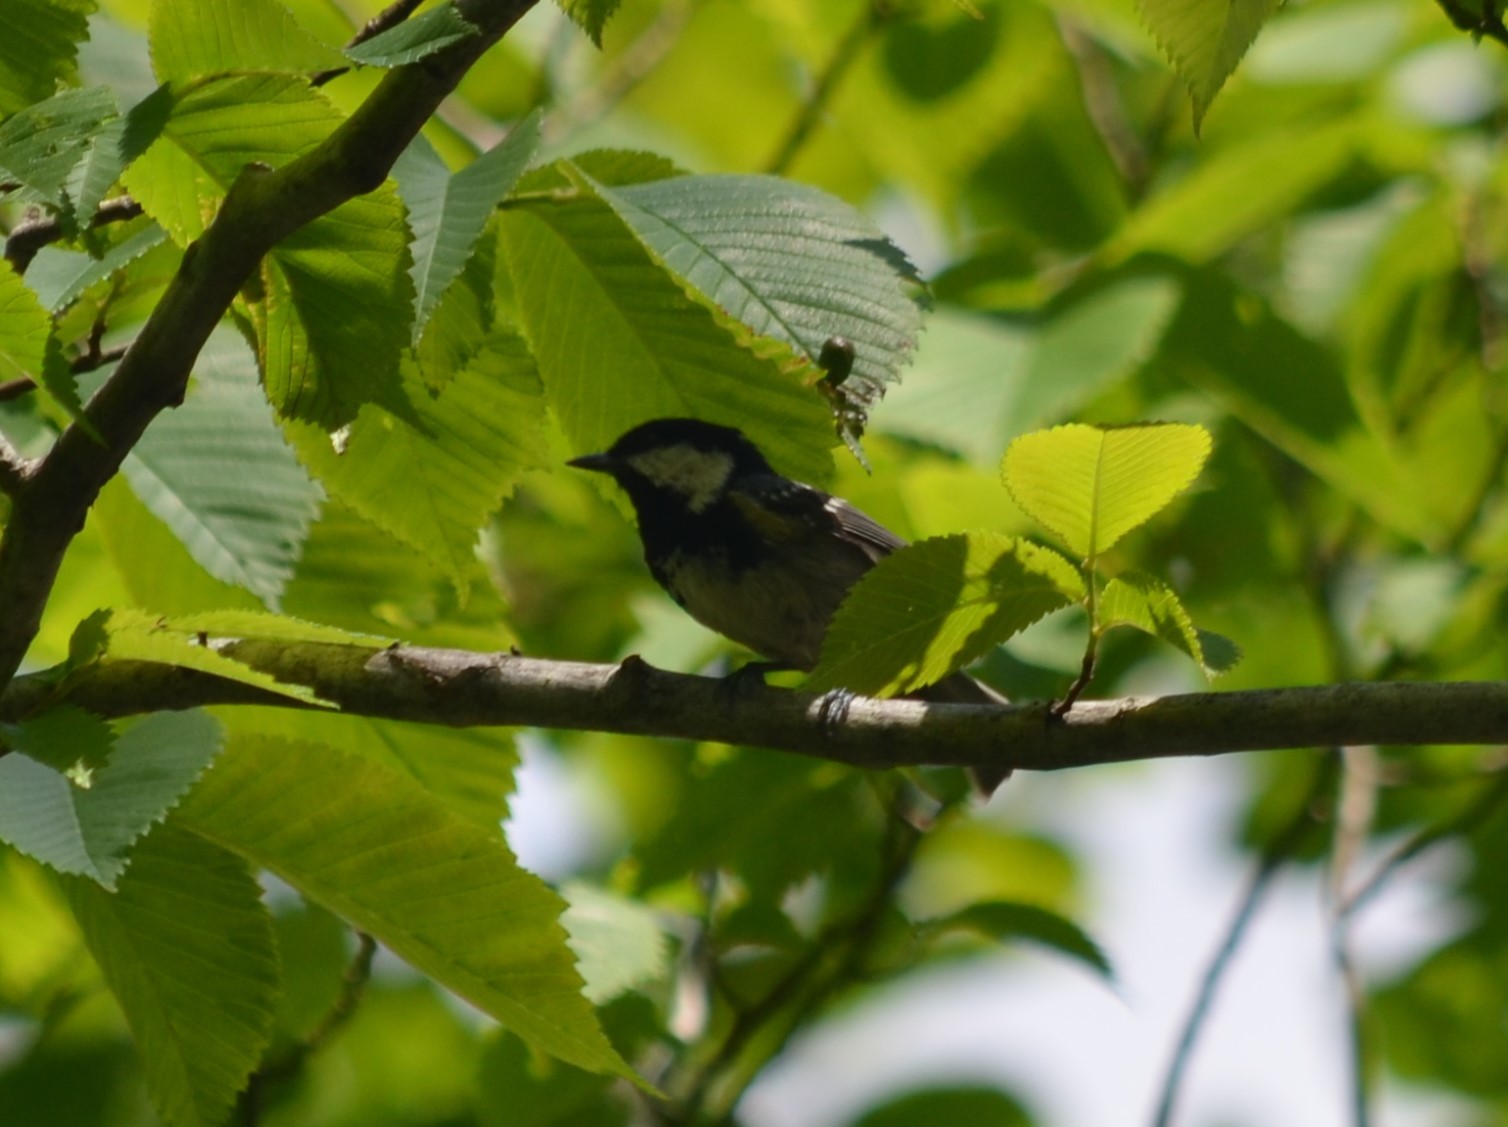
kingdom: Animalia
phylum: Chordata
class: Aves
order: Passeriformes
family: Paridae
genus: Parus
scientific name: Parus major
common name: Great tit
